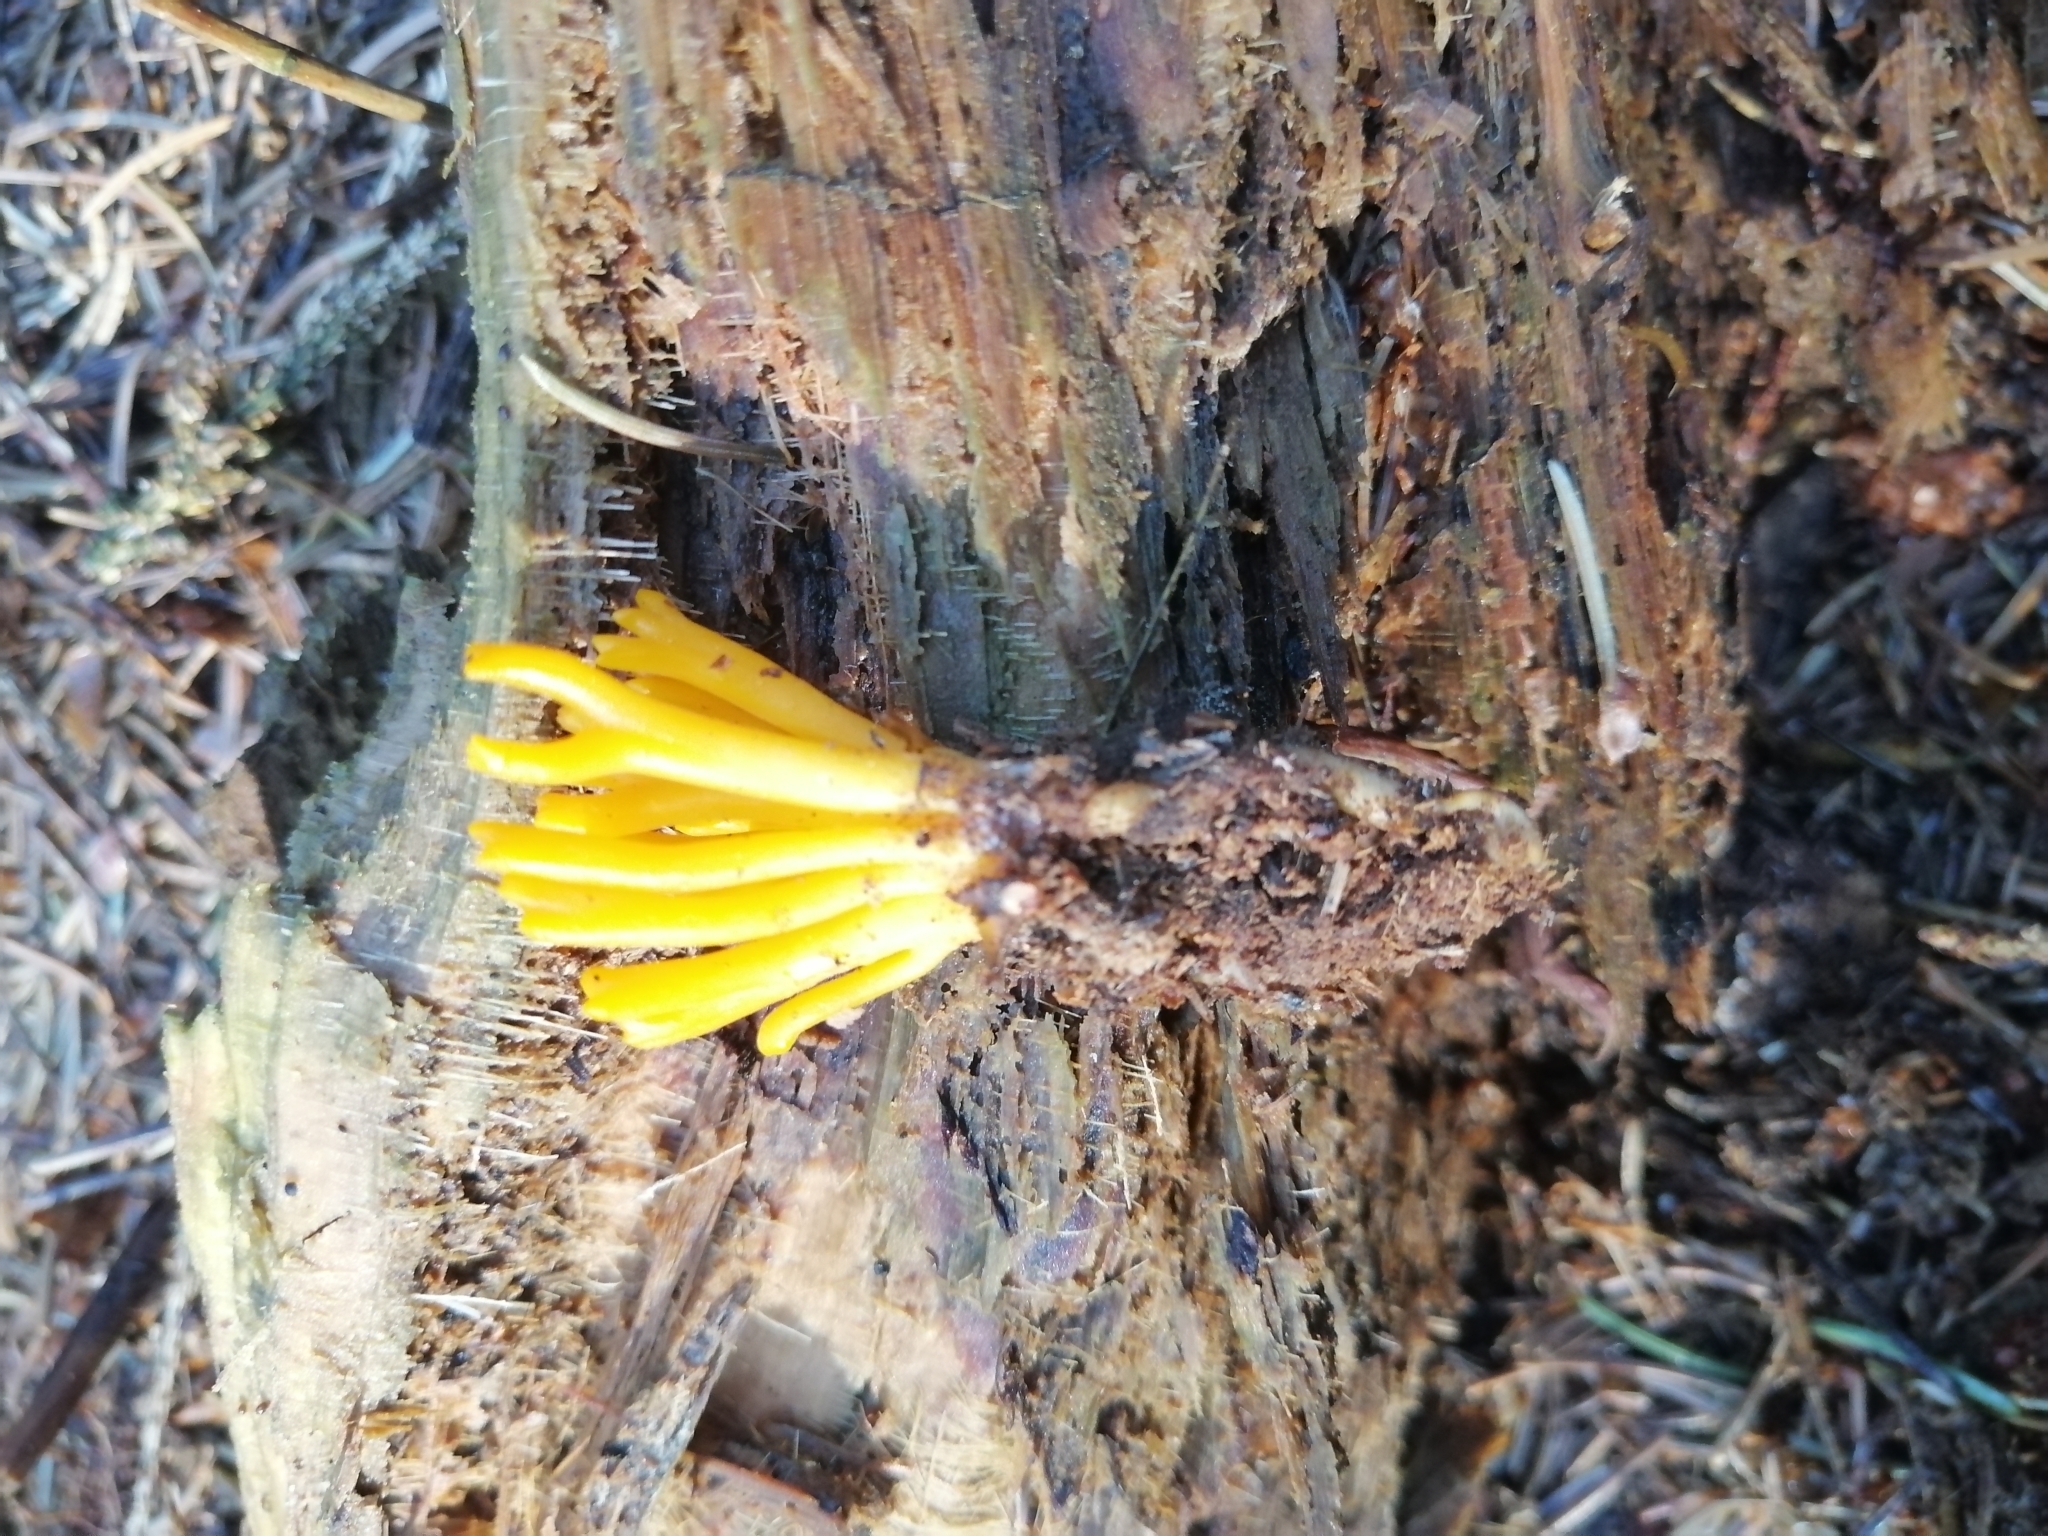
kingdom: Fungi
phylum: Basidiomycota
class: Dacrymycetes
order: Dacrymycetales
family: Dacrymycetaceae
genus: Calocera
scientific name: Calocera viscosa
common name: Yellow stagshorn
